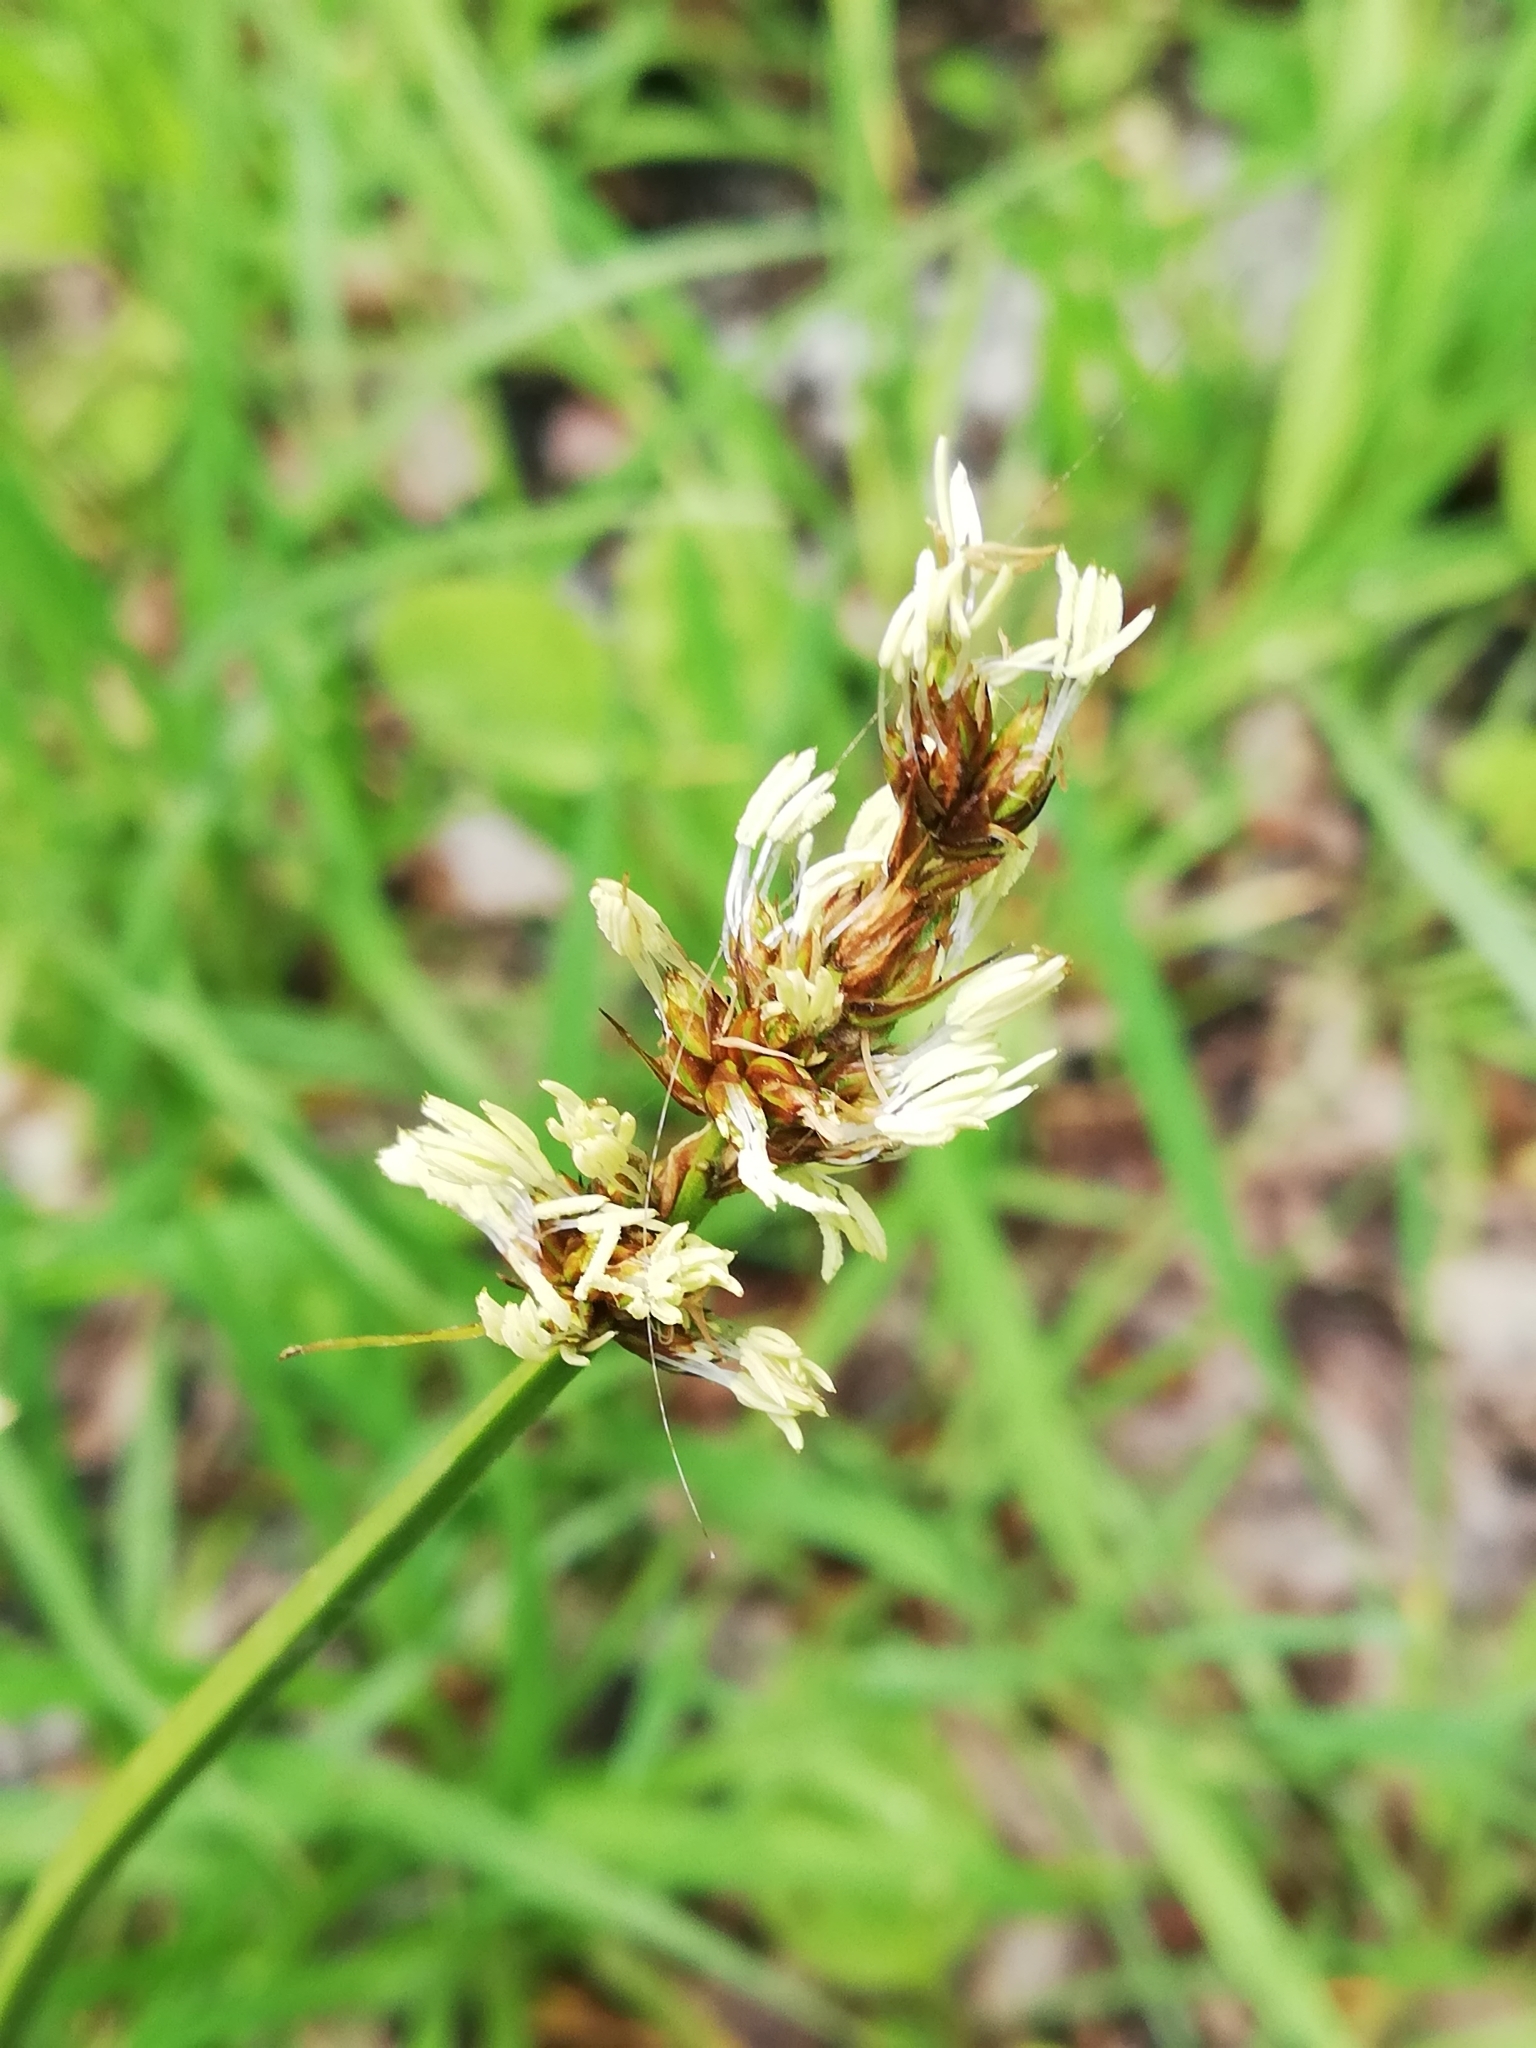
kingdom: Plantae
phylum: Tracheophyta
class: Liliopsida
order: Poales
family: Cyperaceae
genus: Carex
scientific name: Carex vulpina
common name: True fox-sedge
